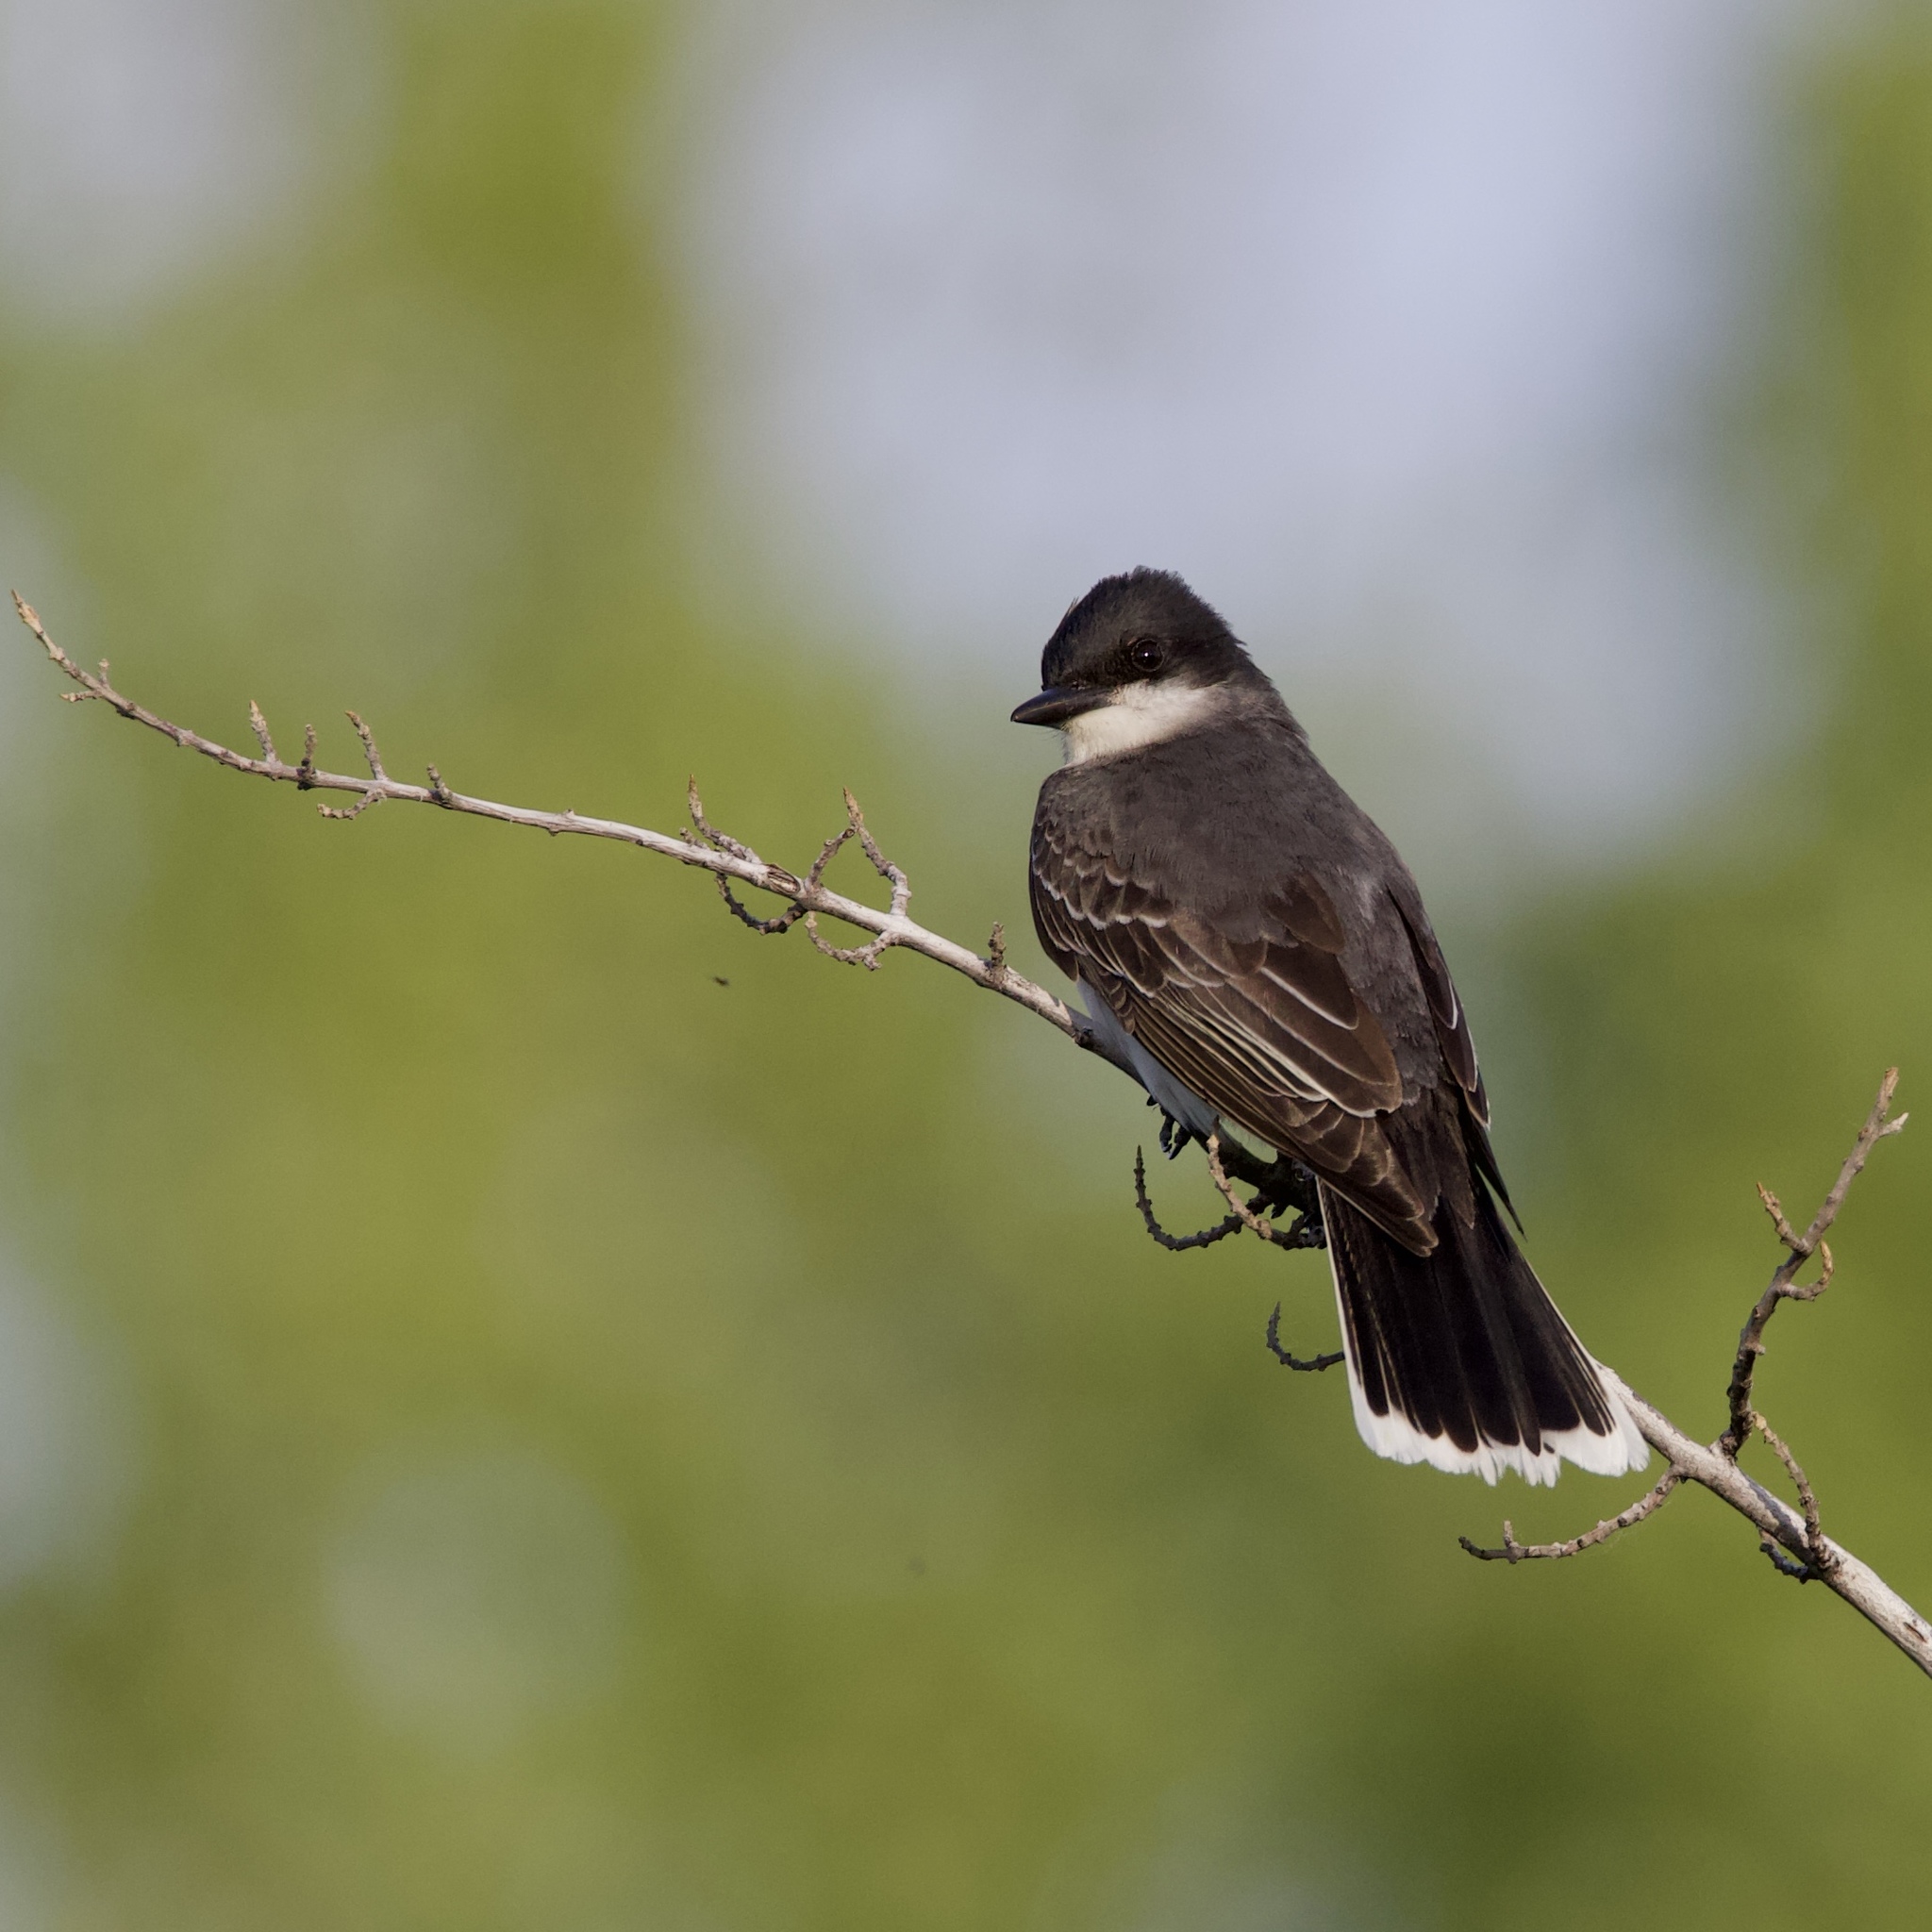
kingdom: Animalia
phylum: Chordata
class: Aves
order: Passeriformes
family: Tyrannidae
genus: Tyrannus
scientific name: Tyrannus tyrannus
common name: Eastern kingbird
